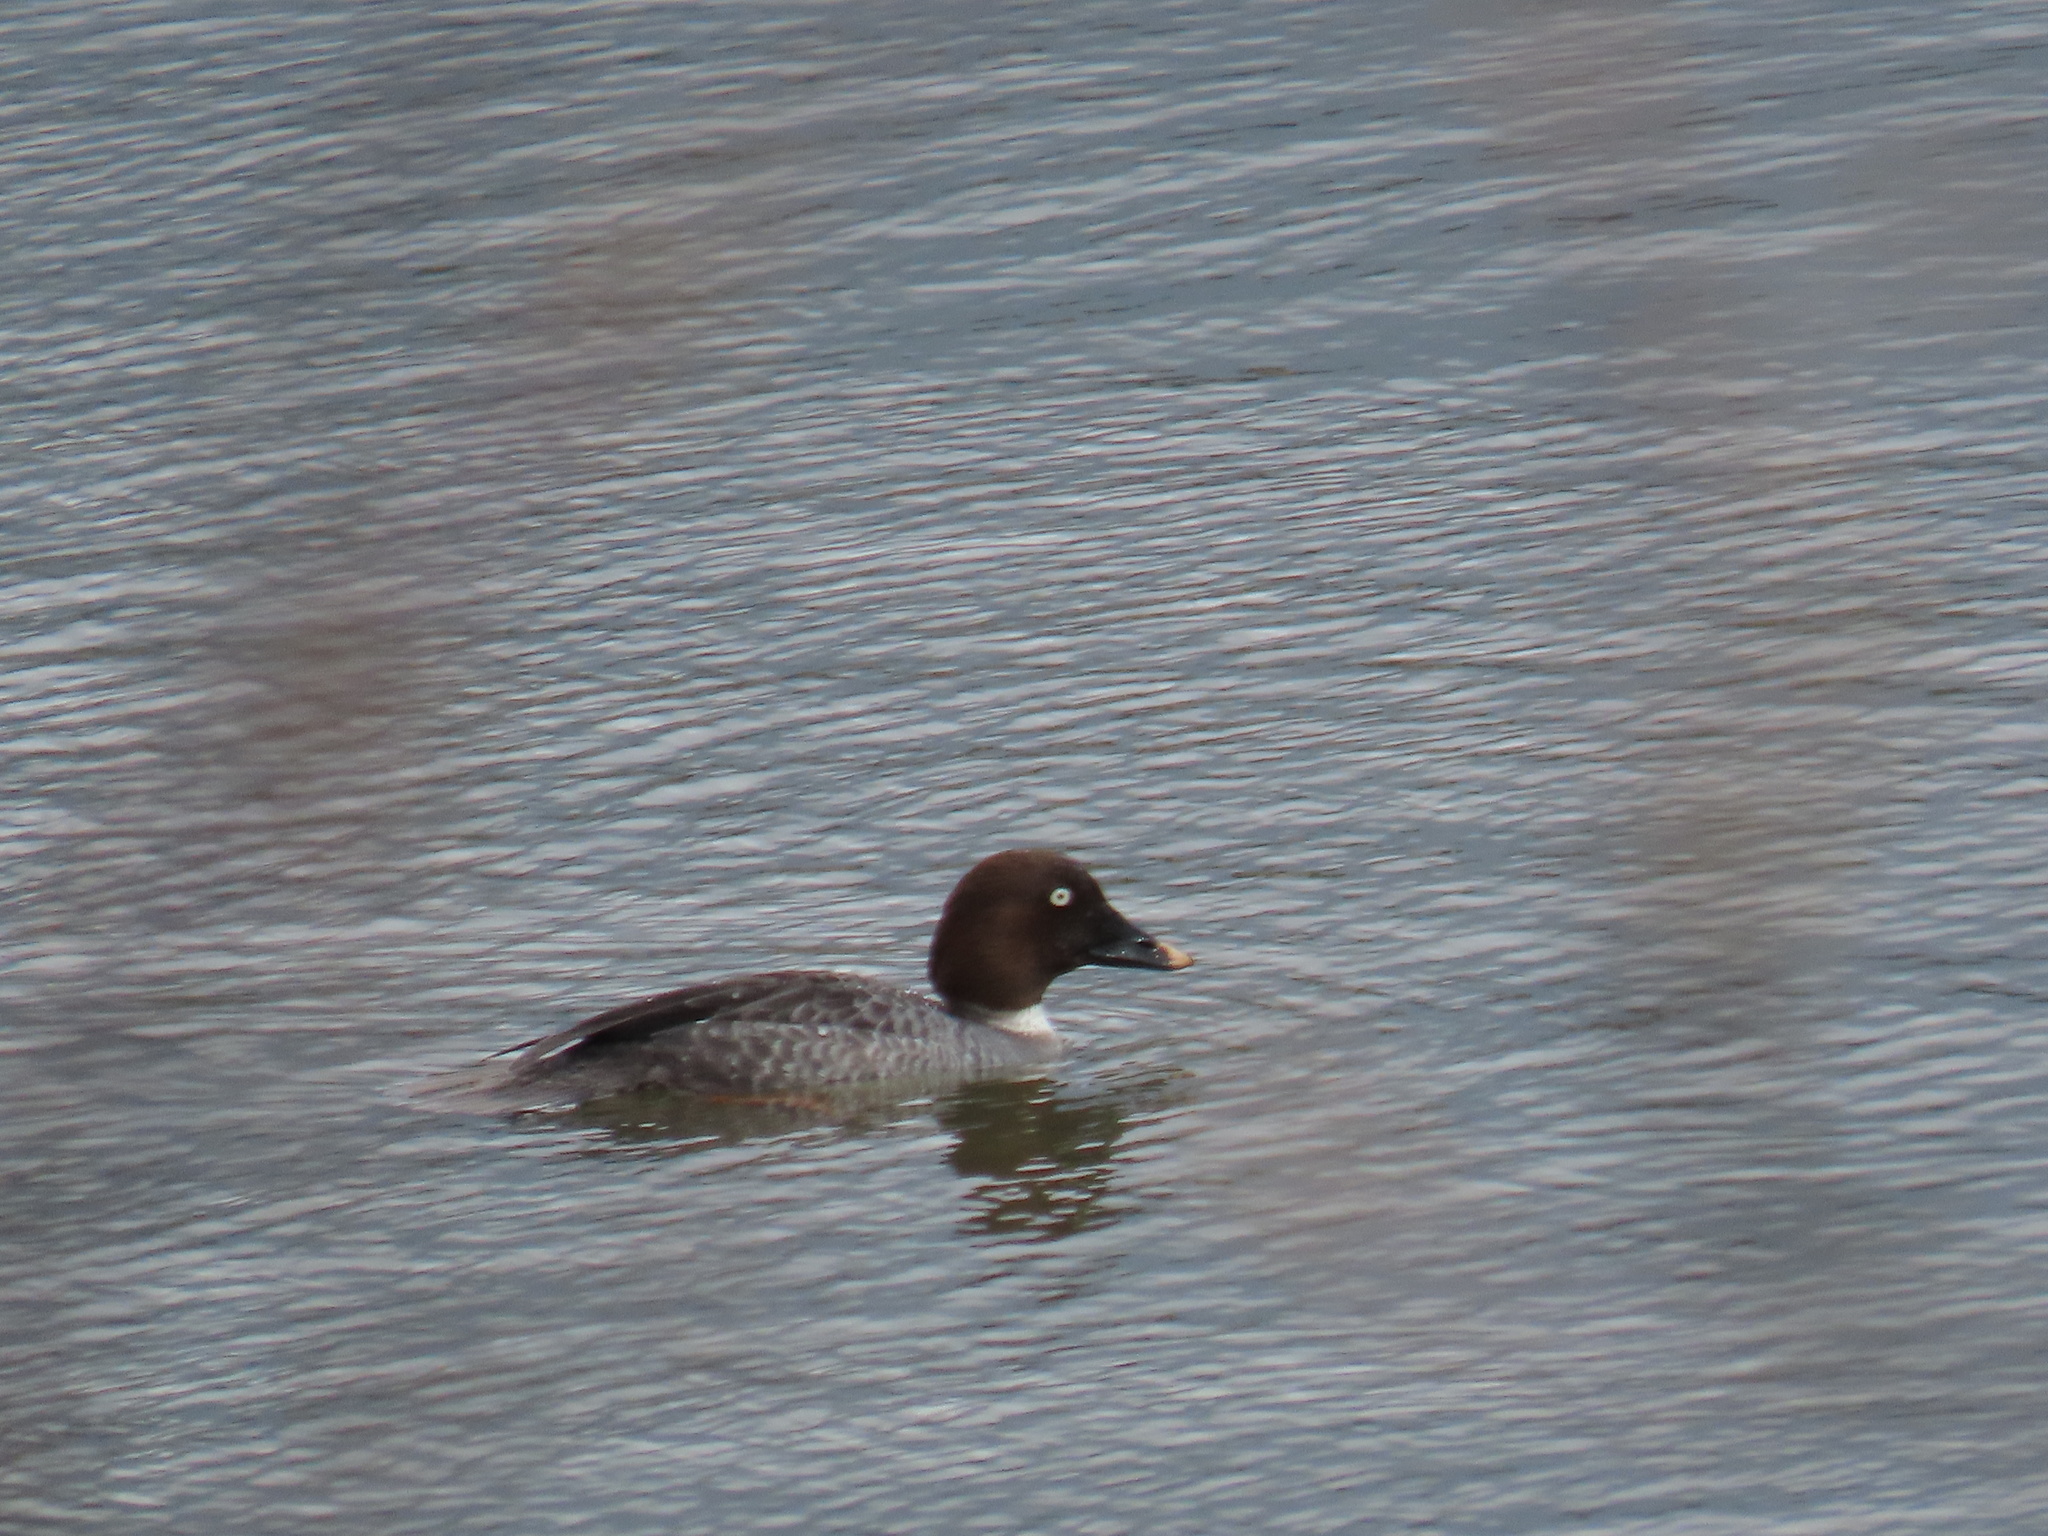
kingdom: Animalia
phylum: Chordata
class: Aves
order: Anseriformes
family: Anatidae
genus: Bucephala
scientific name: Bucephala clangula
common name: Common goldeneye
